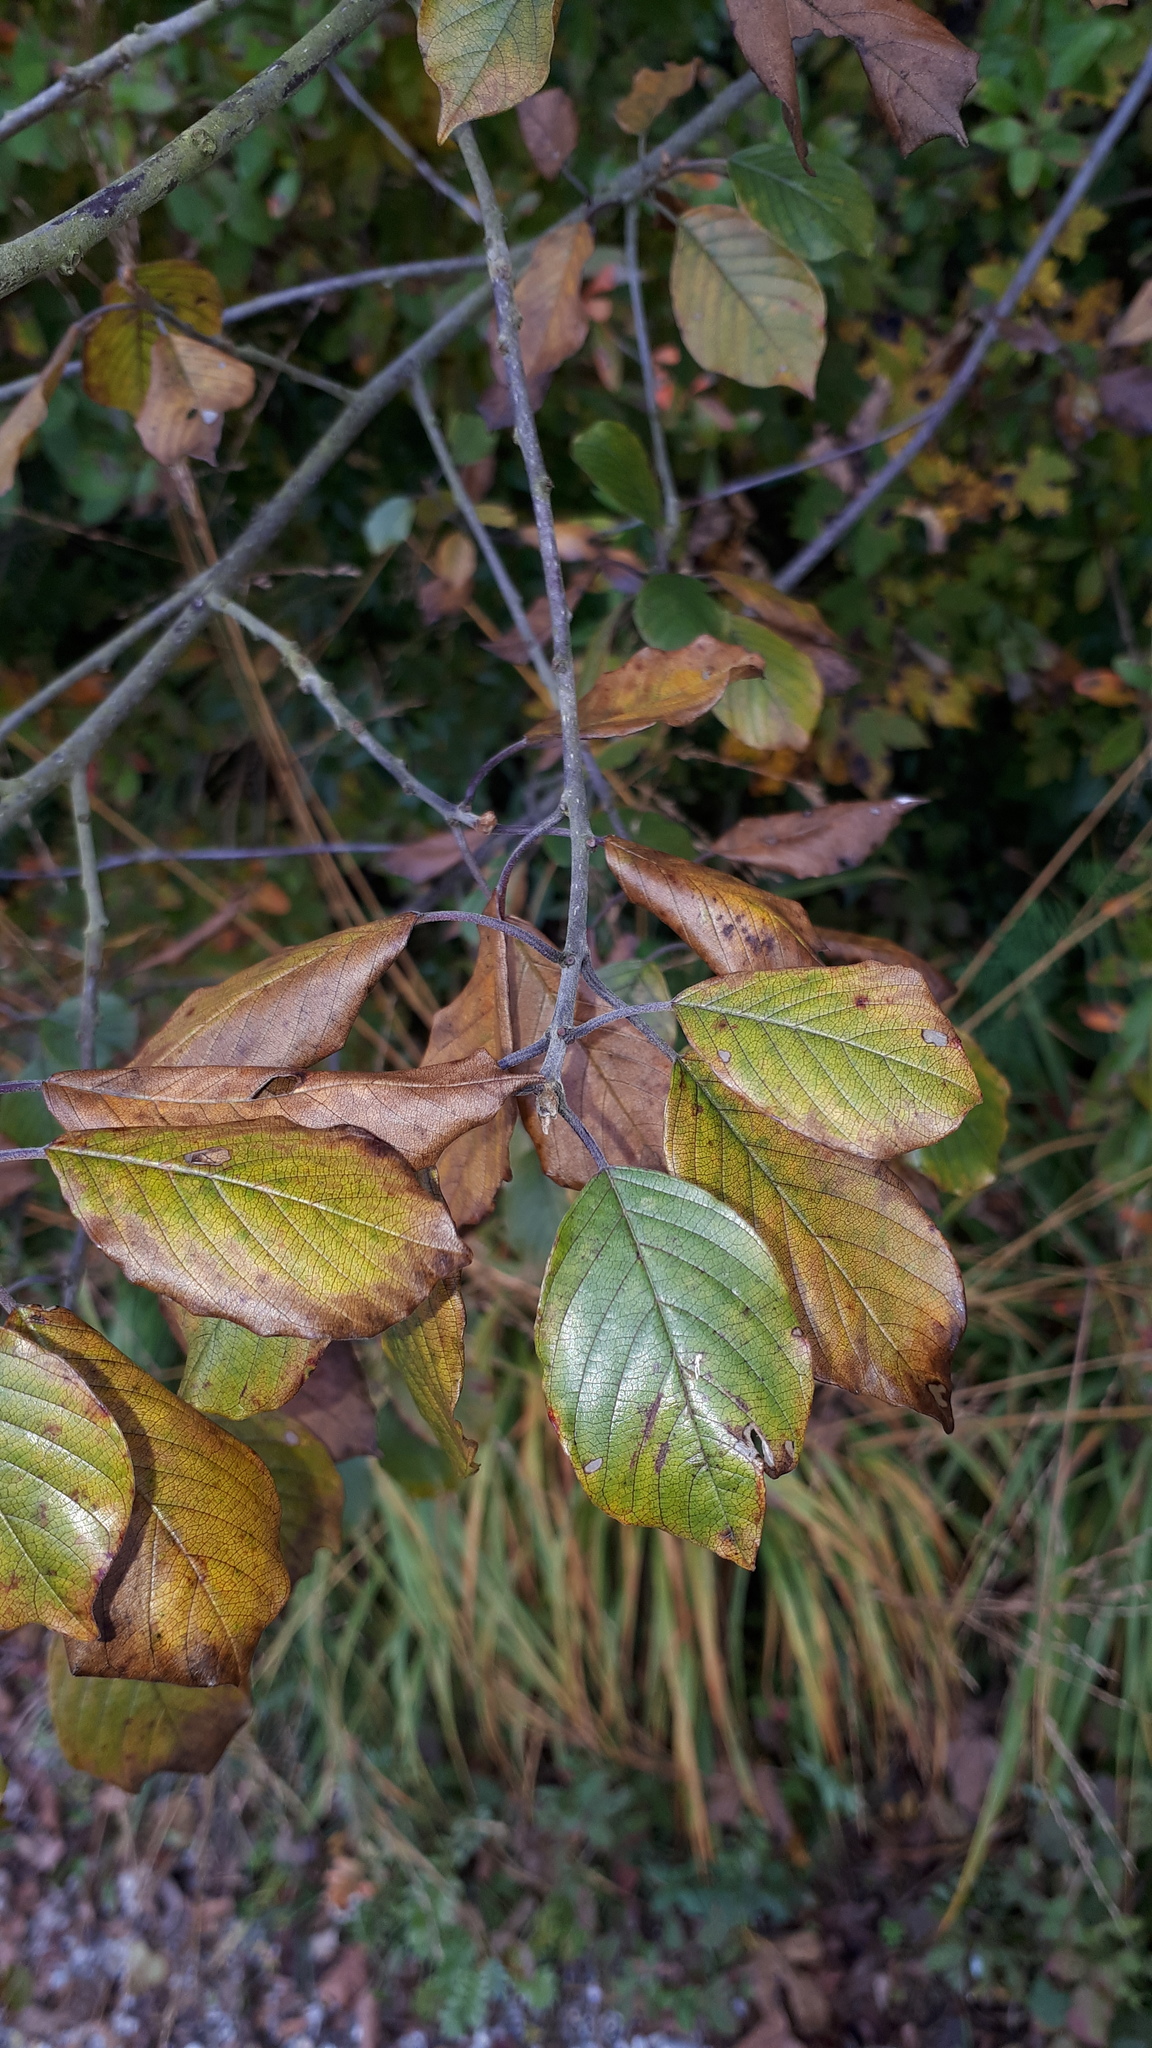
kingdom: Plantae
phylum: Tracheophyta
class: Magnoliopsida
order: Rosales
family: Rhamnaceae
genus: Frangula
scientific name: Frangula alnus
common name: Alder buckthorn
